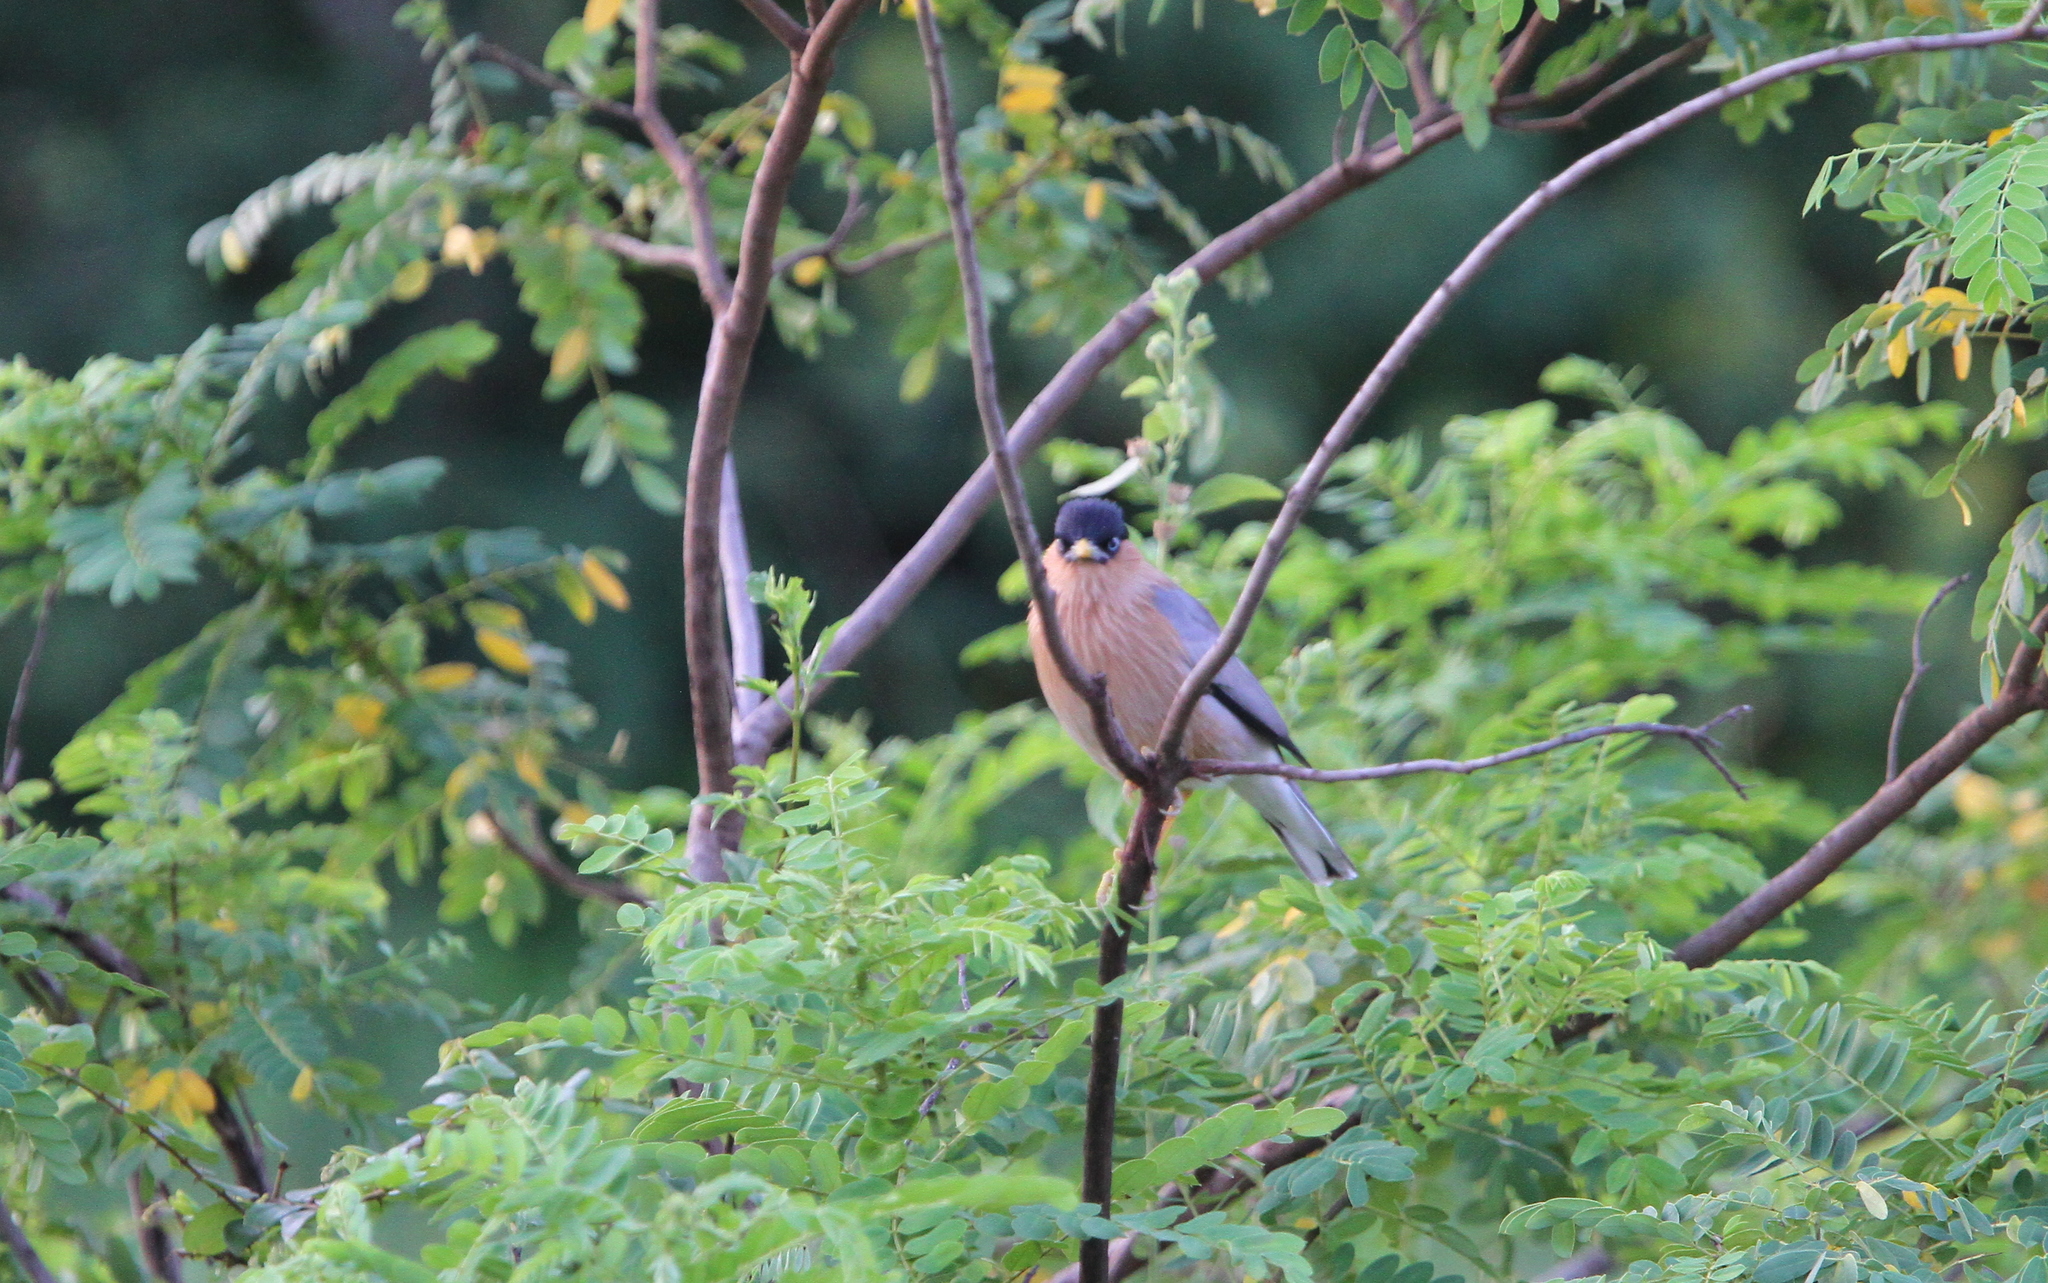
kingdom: Animalia
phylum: Chordata
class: Aves
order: Passeriformes
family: Sturnidae
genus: Sturnia
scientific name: Sturnia pagodarum
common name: Brahminy starling
